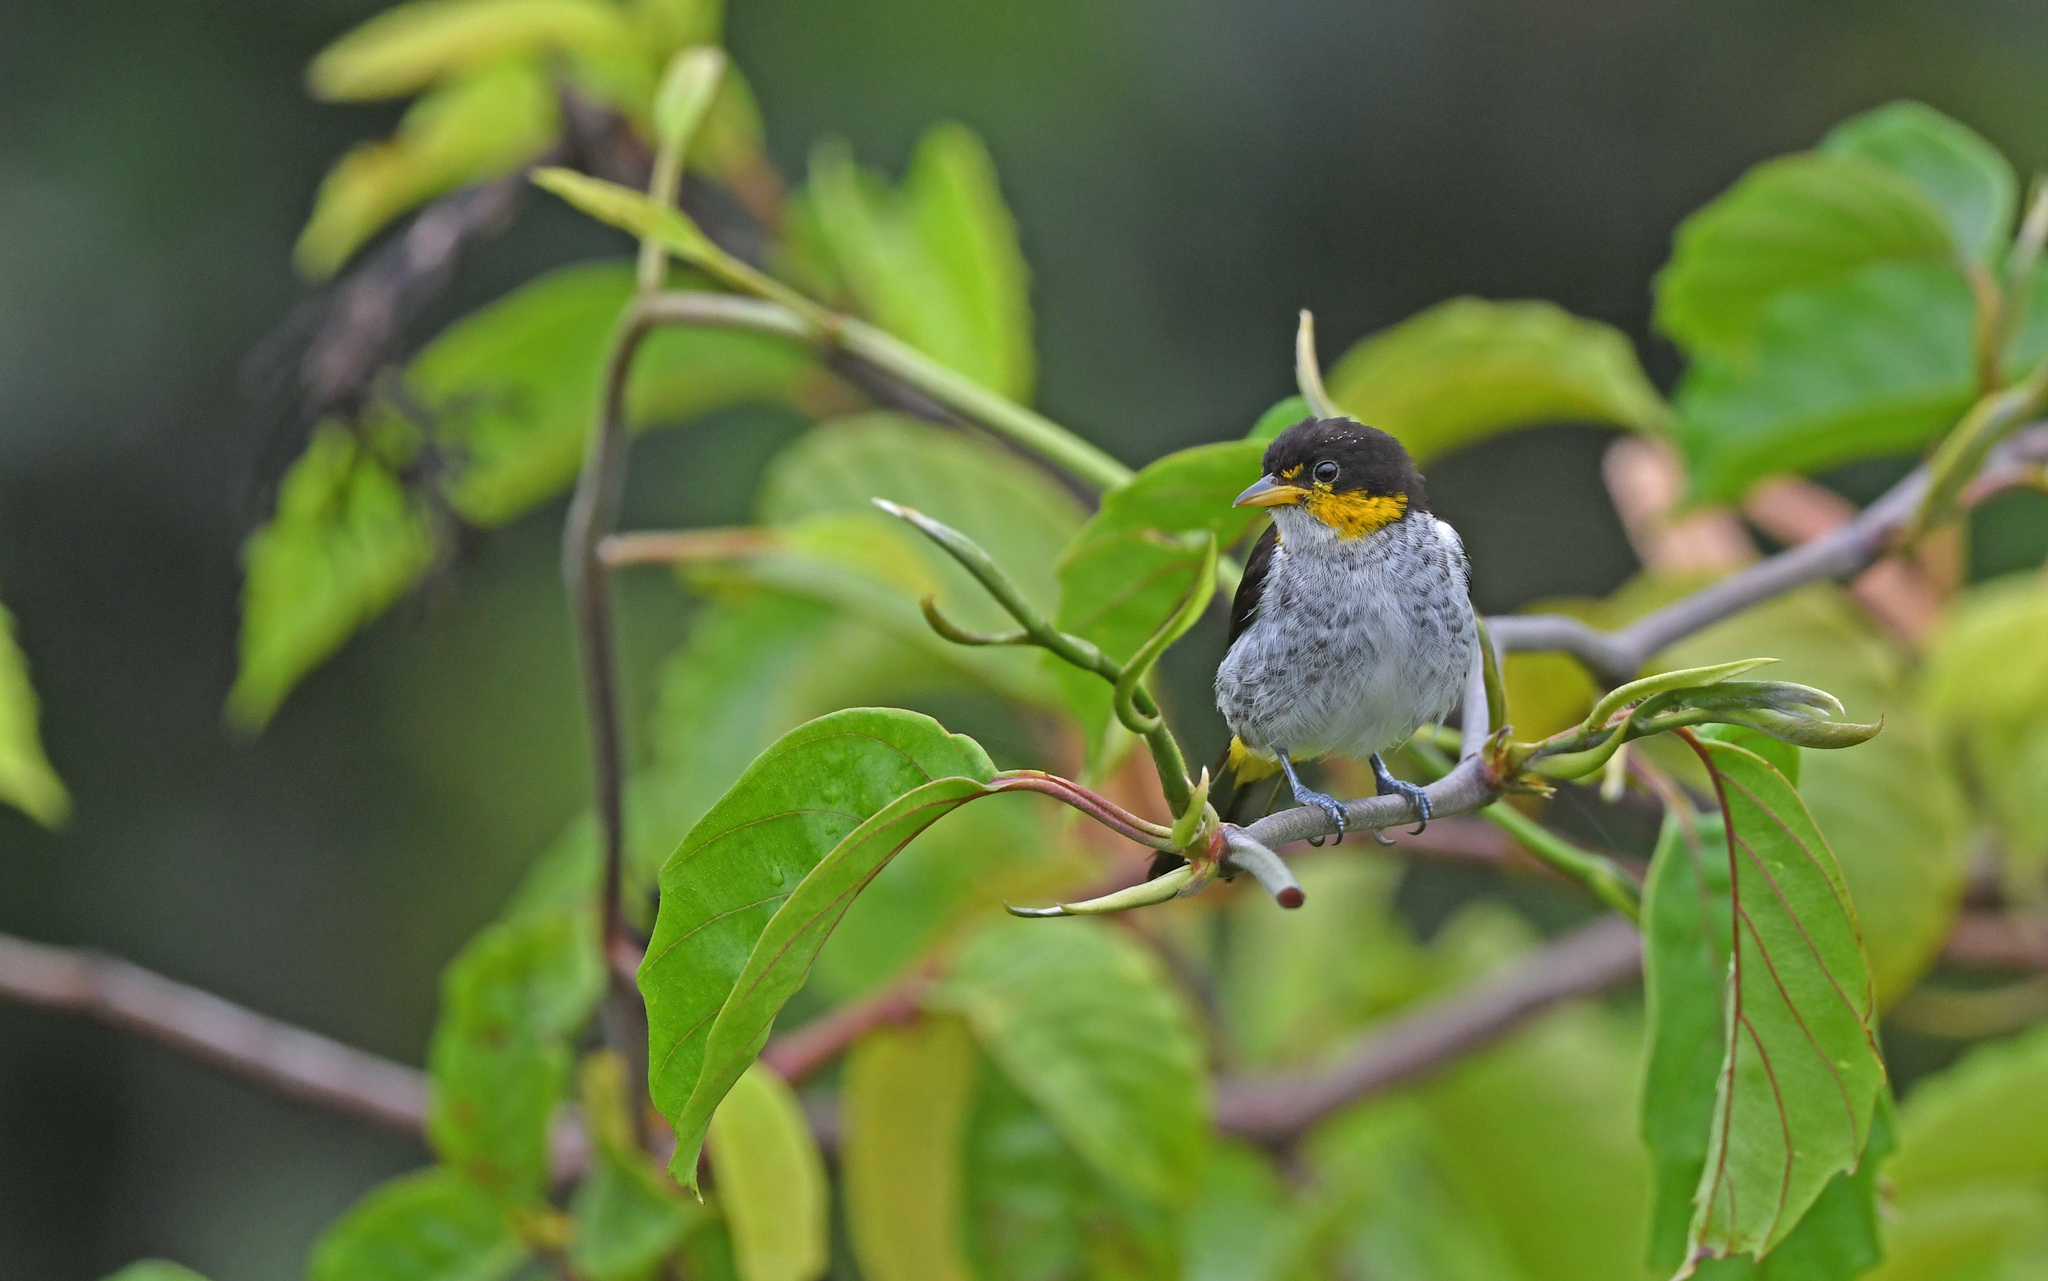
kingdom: Animalia
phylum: Chordata
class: Aves
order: Passeriformes
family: Thraupidae
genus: Hemithraupis
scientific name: Hemithraupis flavicollis
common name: Yellow-backed tanager
